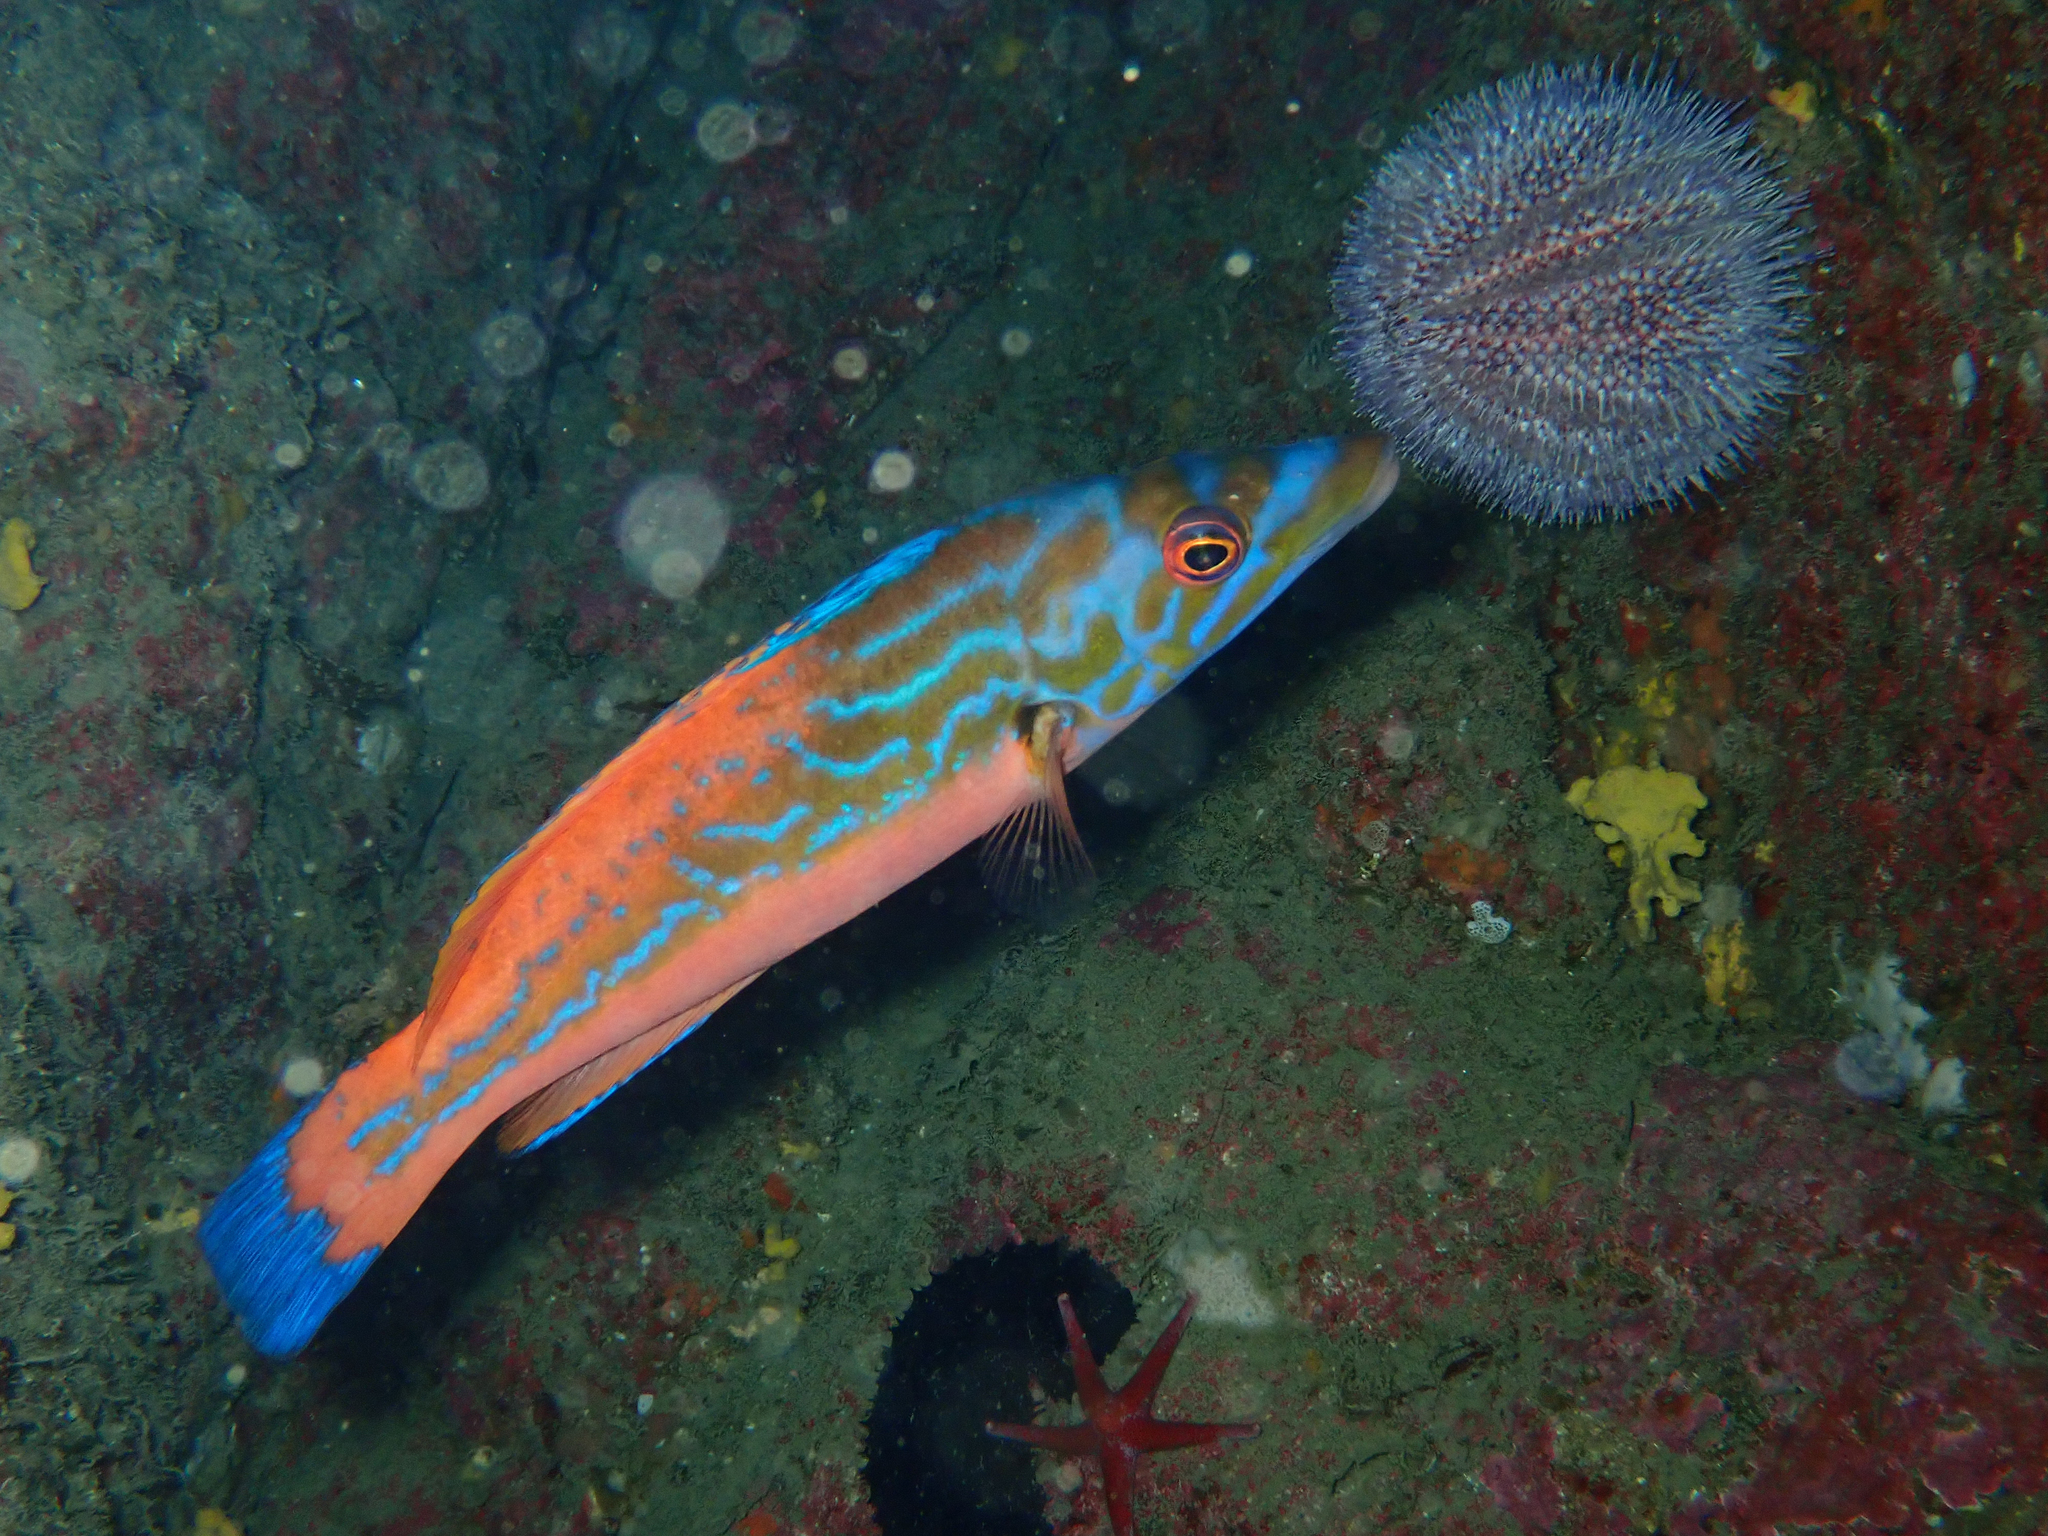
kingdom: Animalia
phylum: Chordata
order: Perciformes
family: Labridae
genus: Labrus
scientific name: Labrus mixtus
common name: Cuckoo wrasse
